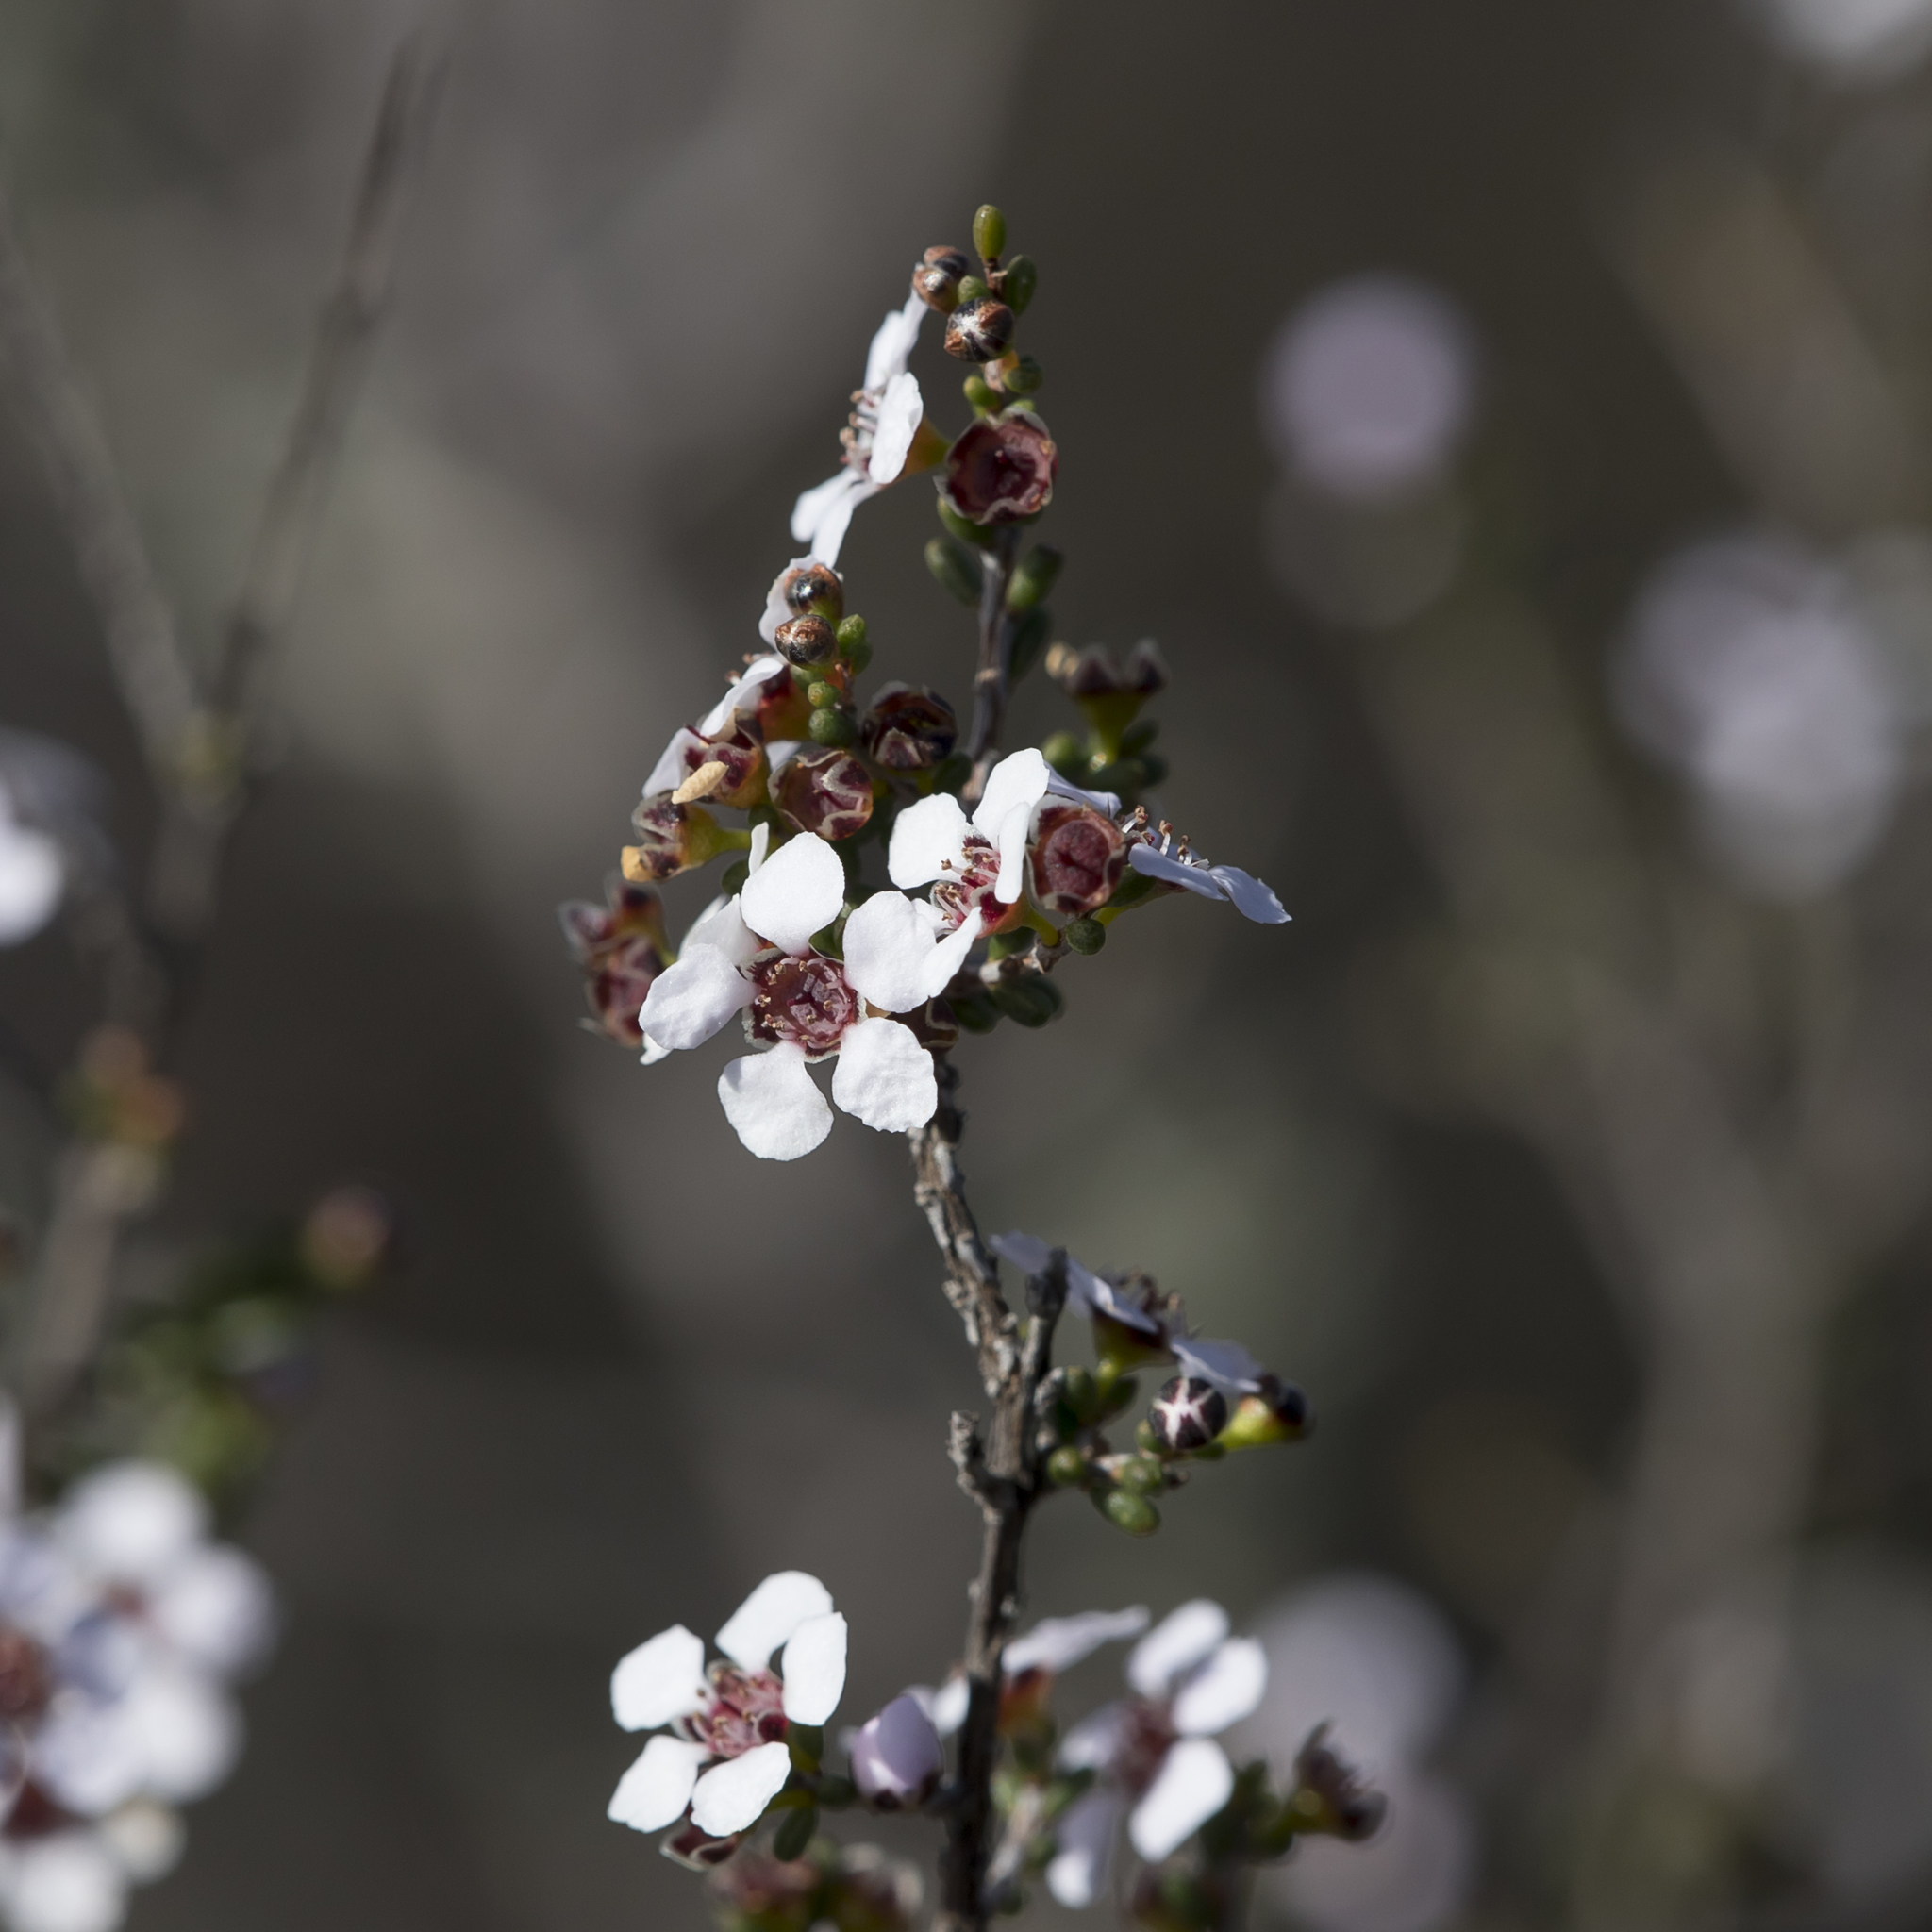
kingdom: Plantae
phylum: Tracheophyta
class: Magnoliopsida
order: Myrtales
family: Myrtaceae
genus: Rinzia
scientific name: Rinzia orientalis
